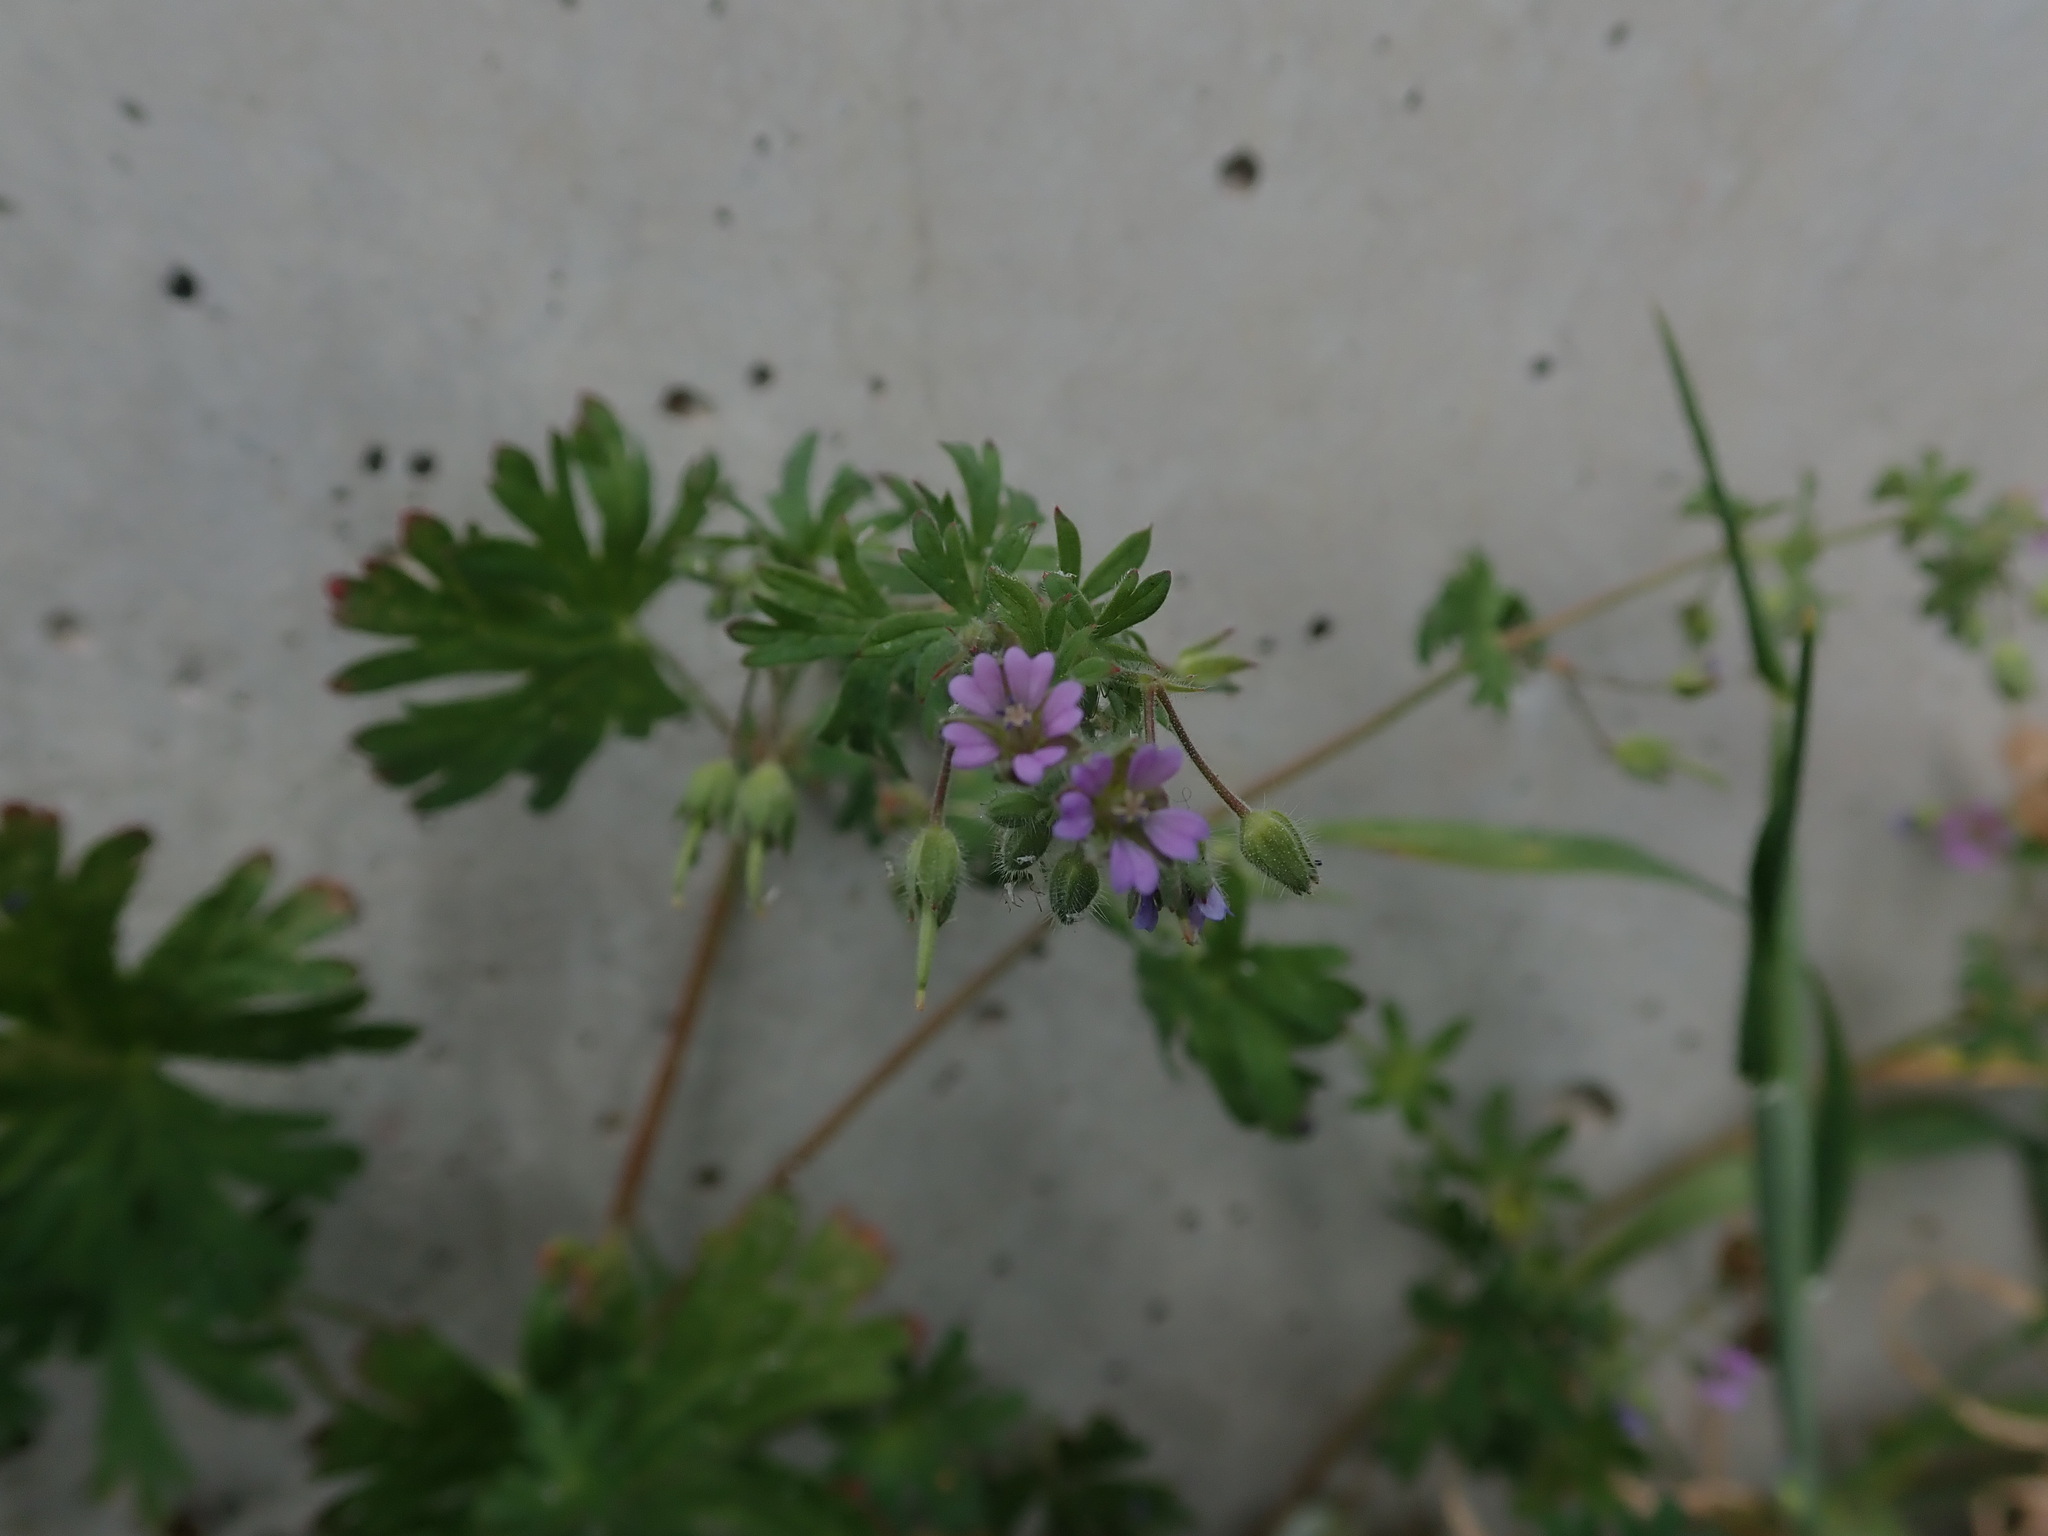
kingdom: Plantae
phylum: Tracheophyta
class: Magnoliopsida
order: Geraniales
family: Geraniaceae
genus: Geranium
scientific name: Geranium pusillum
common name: Small geranium
